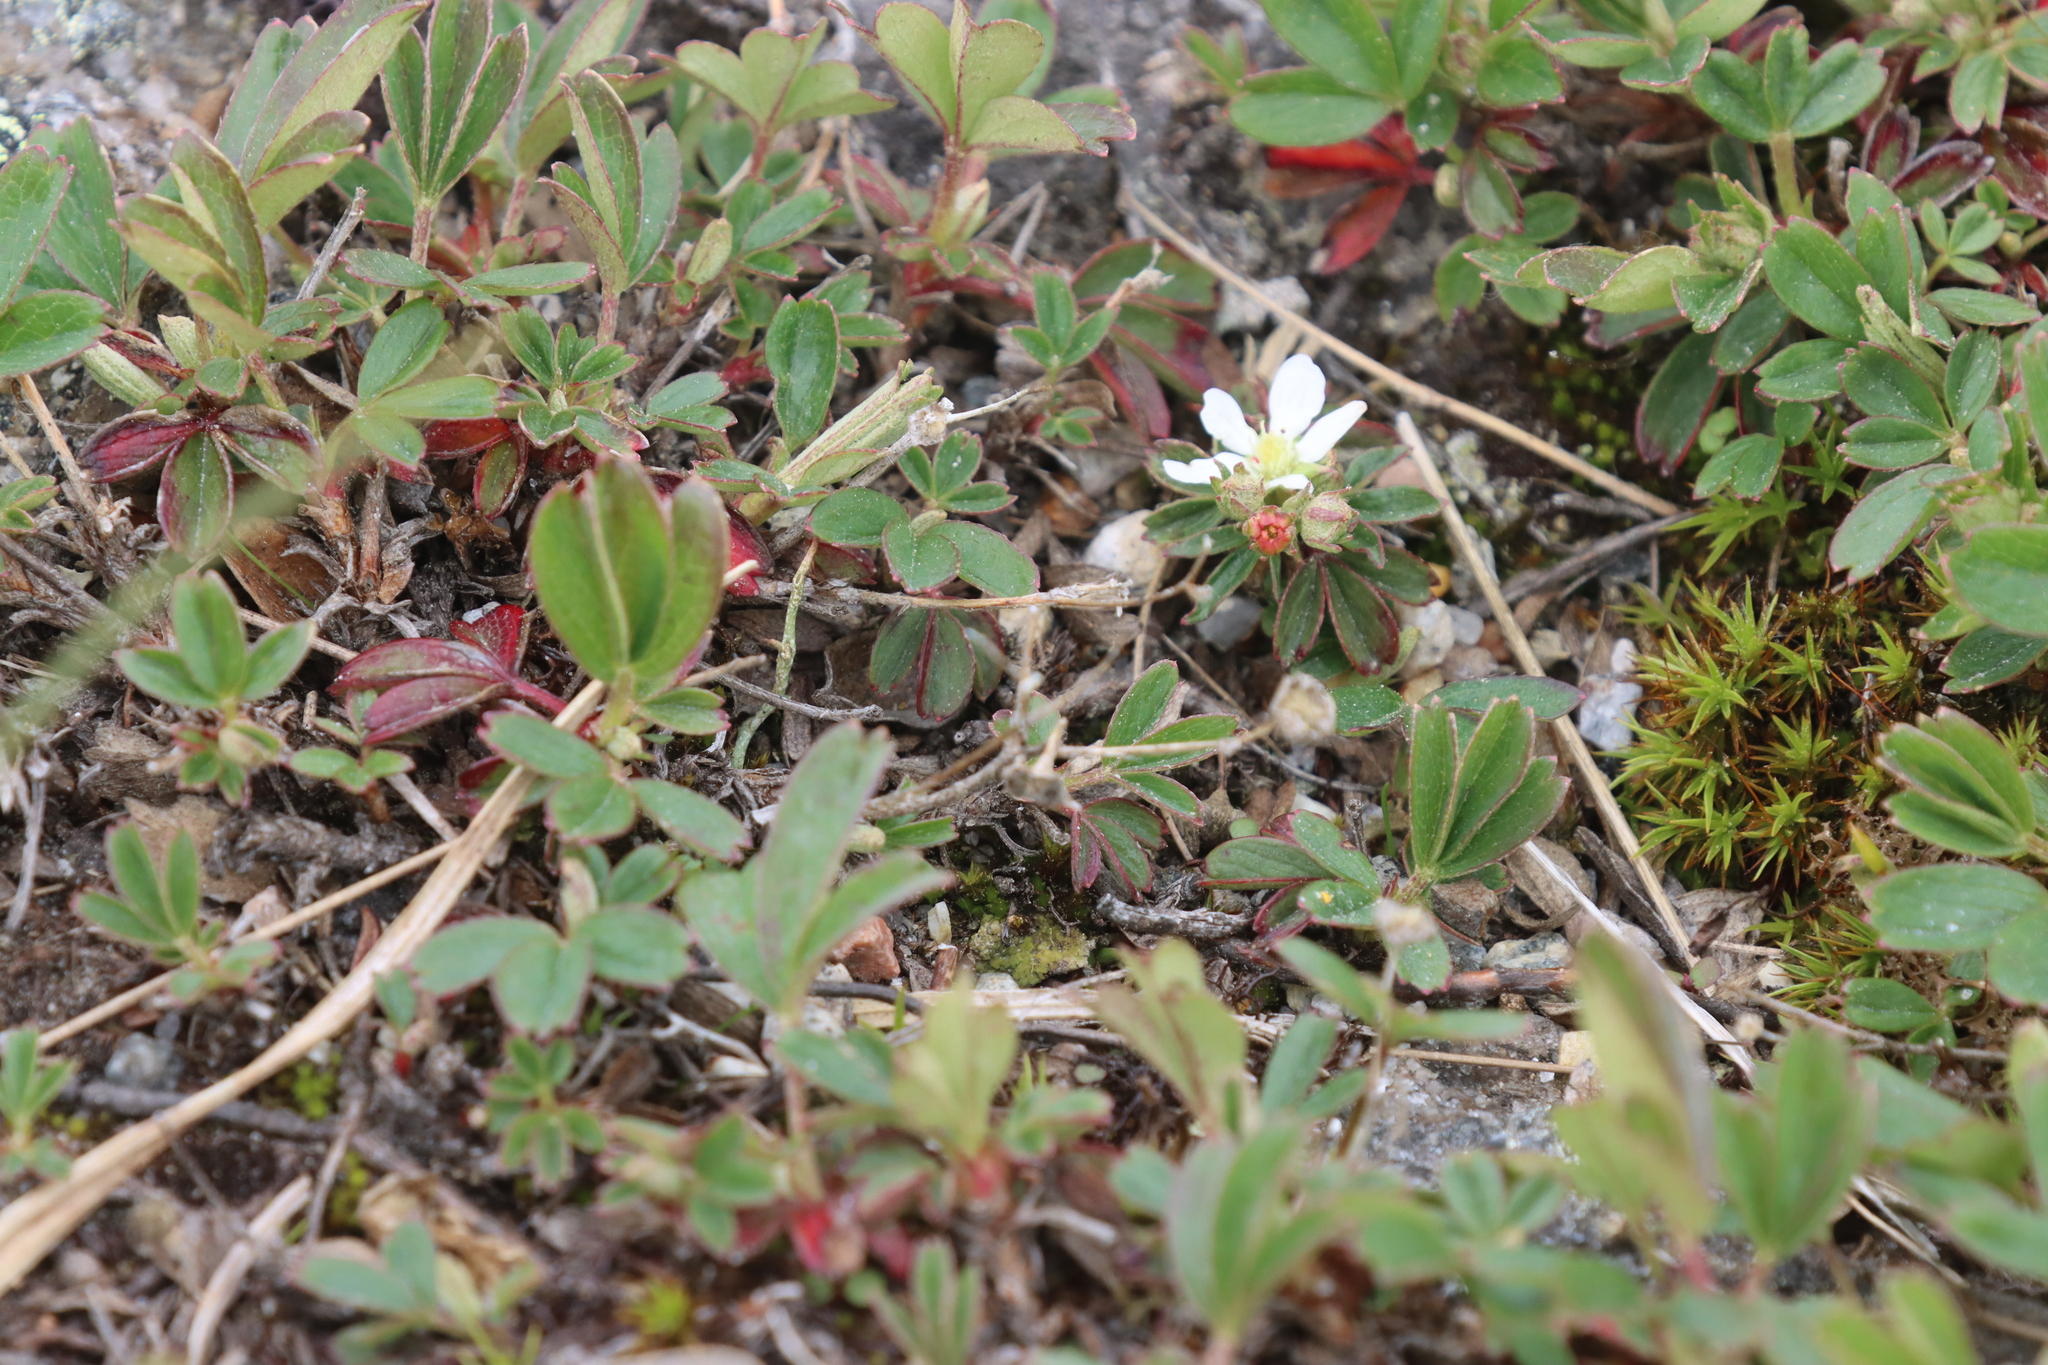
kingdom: Plantae
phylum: Tracheophyta
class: Magnoliopsida
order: Rosales
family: Rosaceae
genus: Sibbaldia
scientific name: Sibbaldia tridentata
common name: Three-toothed cinquefoil
